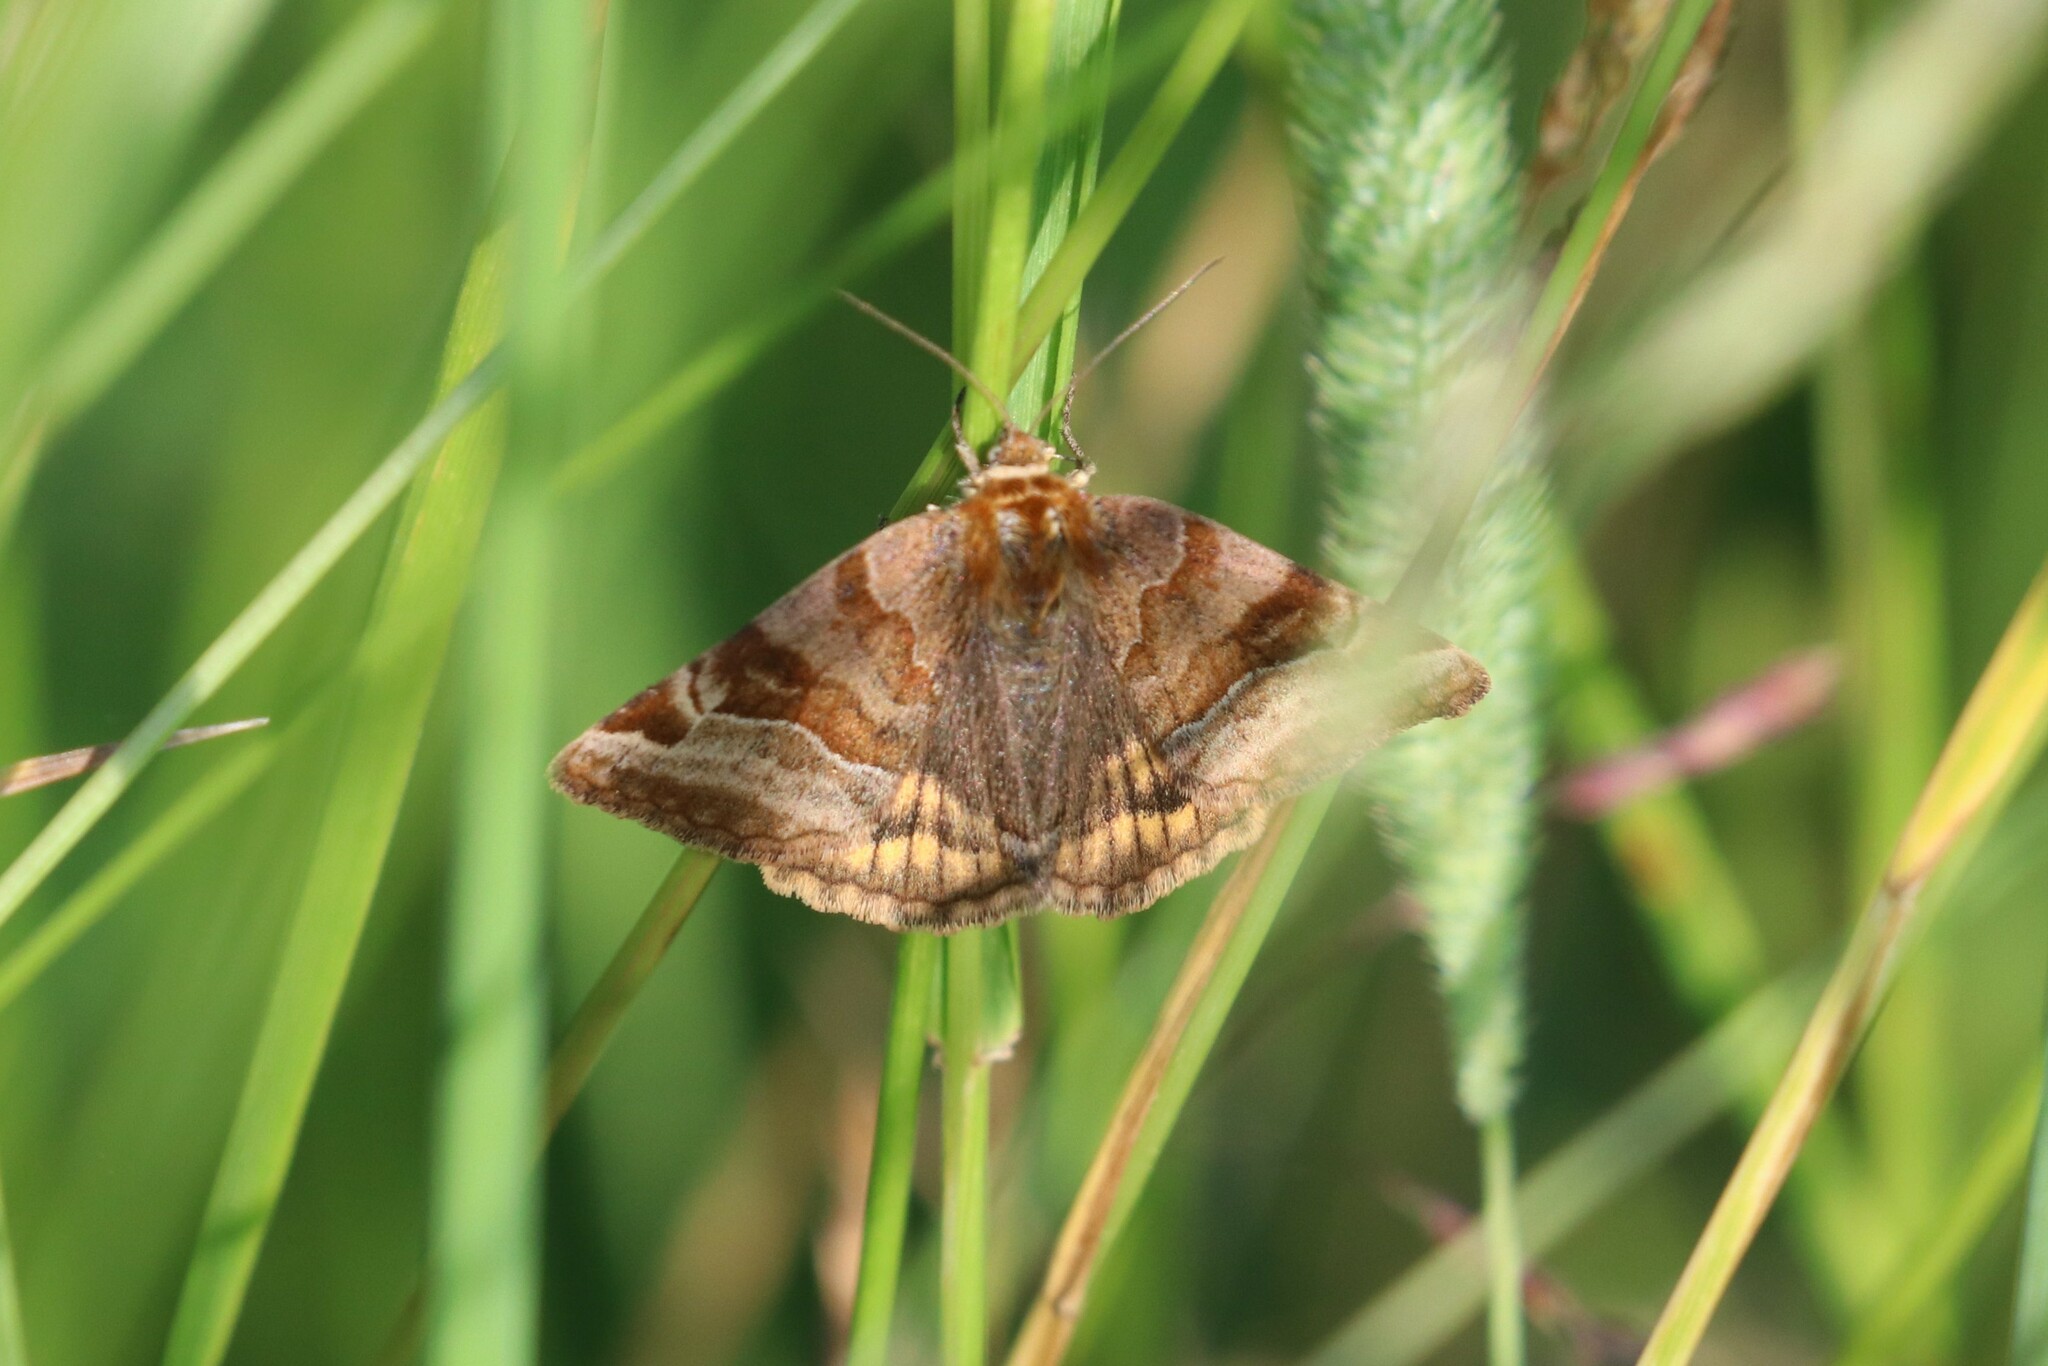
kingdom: Animalia
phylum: Arthropoda
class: Insecta
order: Lepidoptera
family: Erebidae
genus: Euclidia
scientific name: Euclidia glyphica
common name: Burnet companion
